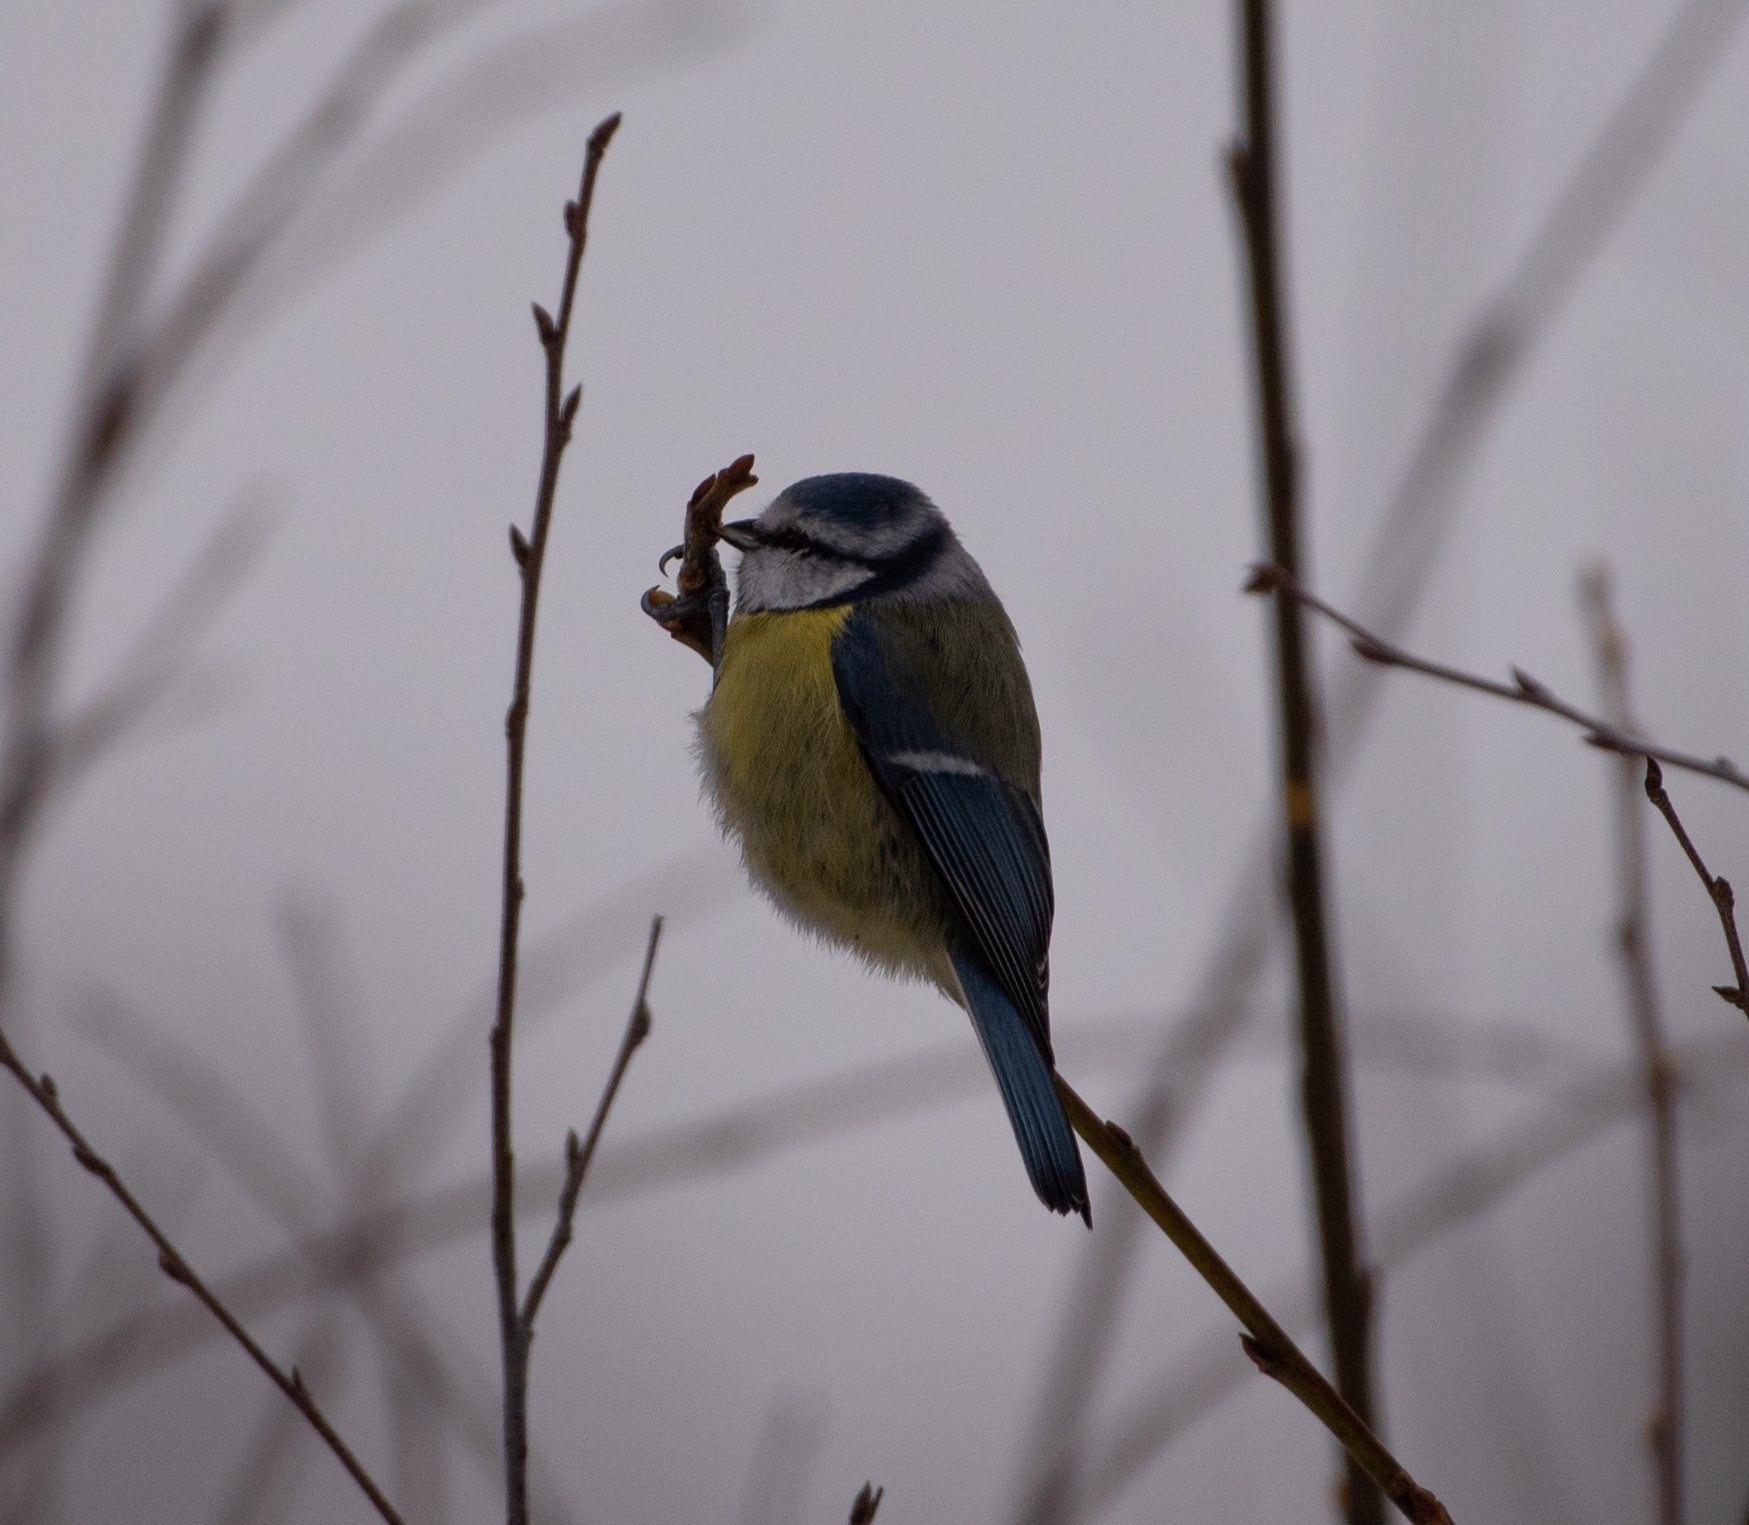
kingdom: Animalia
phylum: Chordata
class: Aves
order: Passeriformes
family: Paridae
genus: Cyanistes
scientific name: Cyanistes caeruleus
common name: Eurasian blue tit
